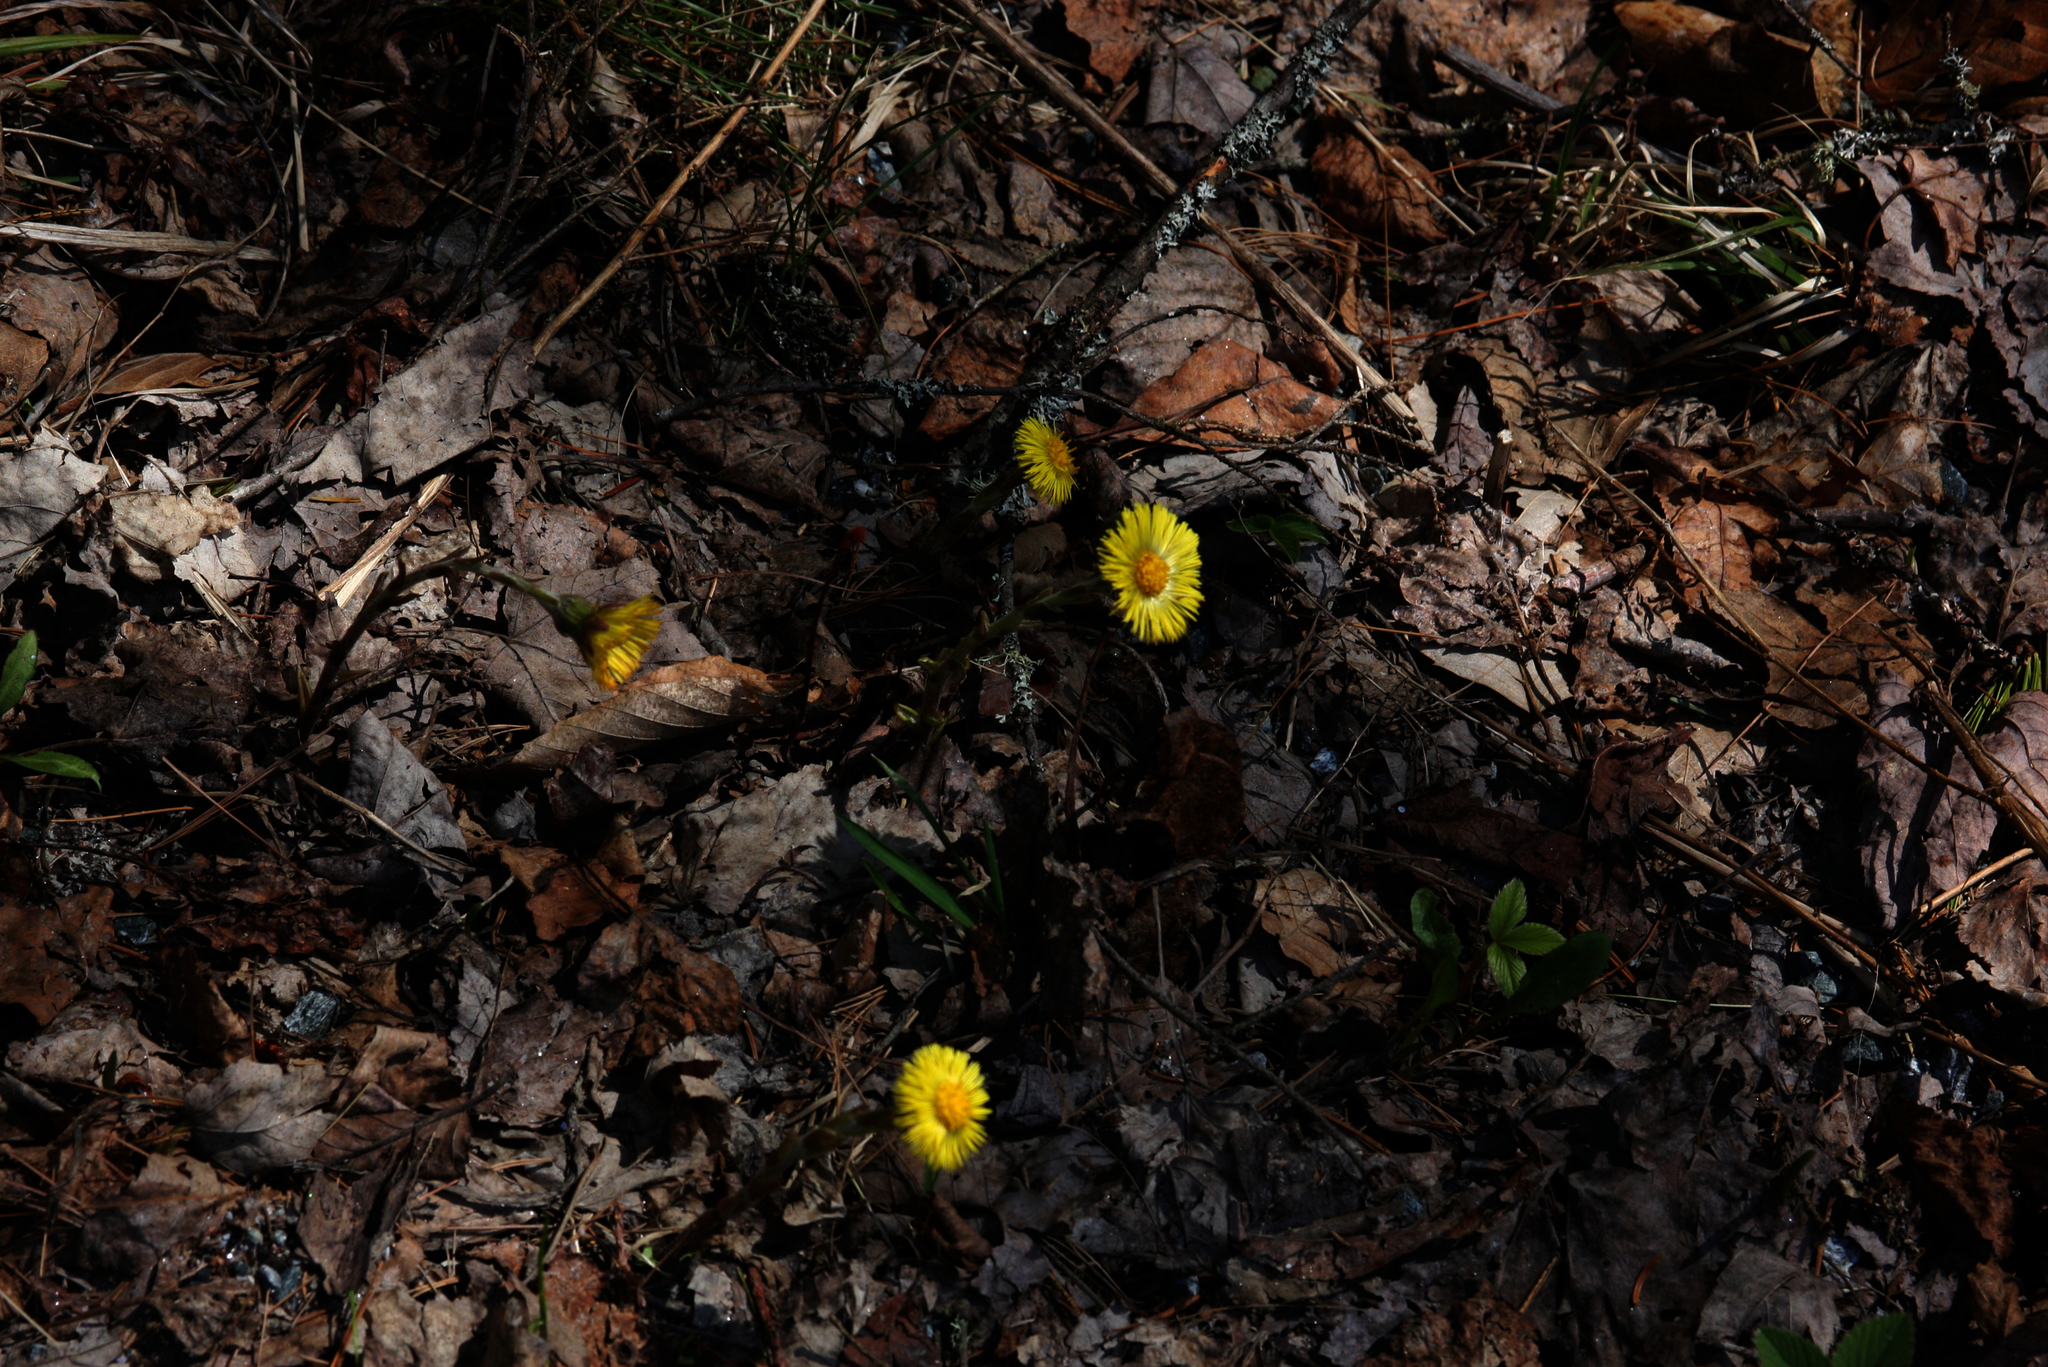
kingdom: Plantae
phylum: Tracheophyta
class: Magnoliopsida
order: Asterales
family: Asteraceae
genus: Tussilago
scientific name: Tussilago farfara
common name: Coltsfoot
